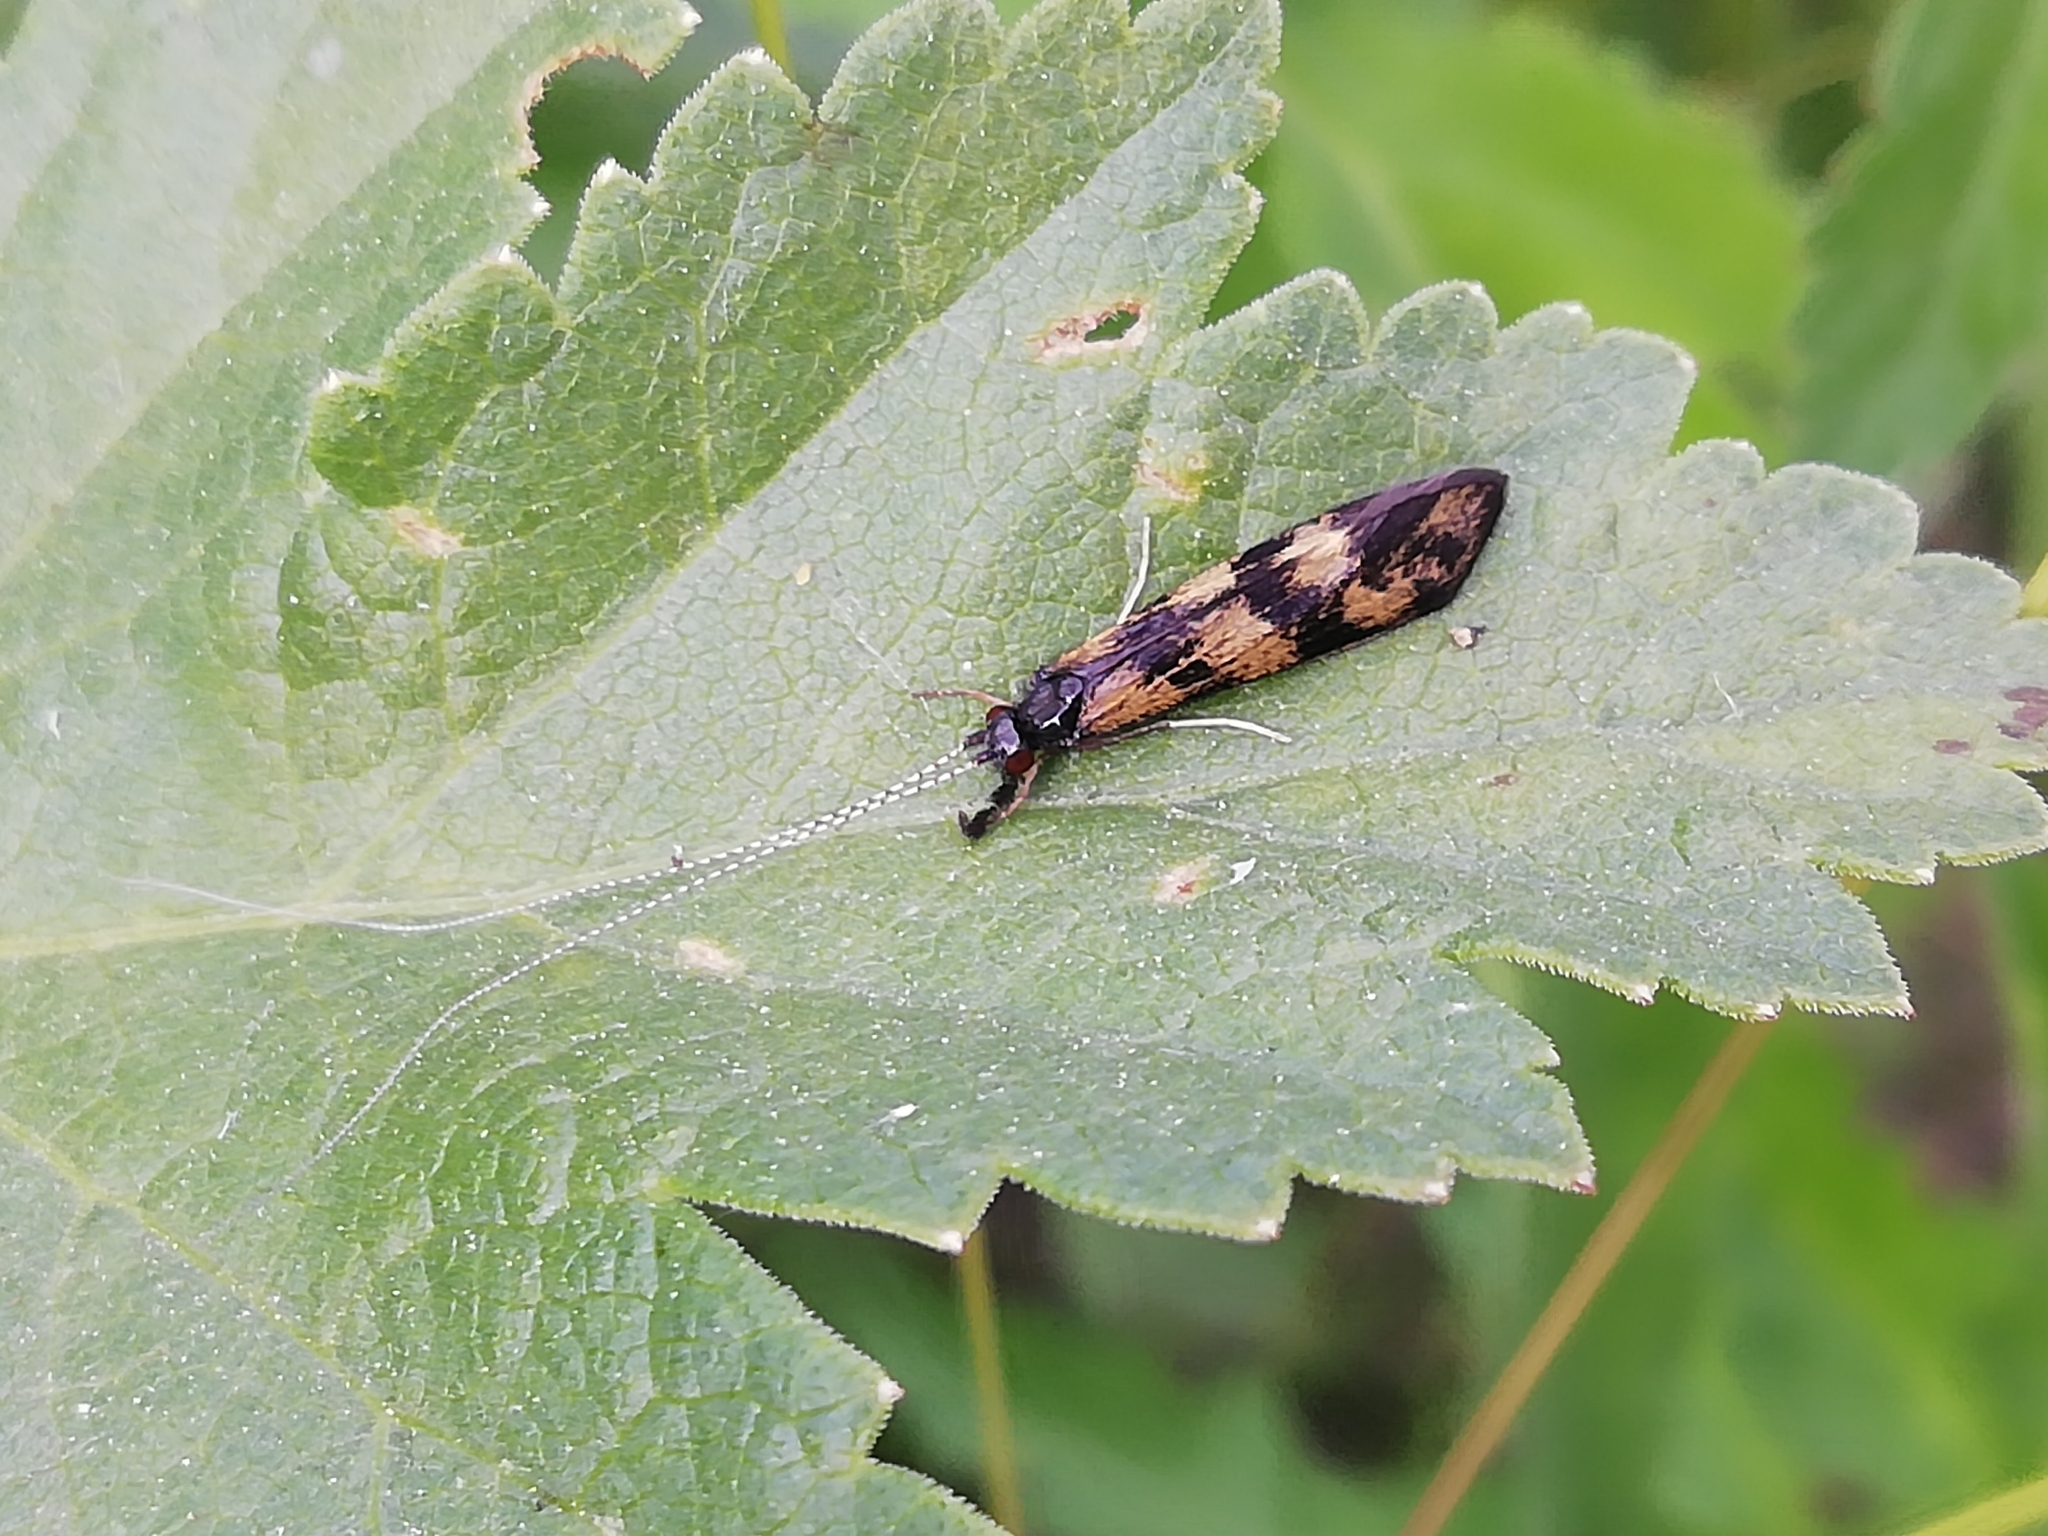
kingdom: Animalia
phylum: Arthropoda
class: Insecta
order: Trichoptera
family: Leptoceridae
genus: Mystacides
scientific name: Mystacides longicornis
